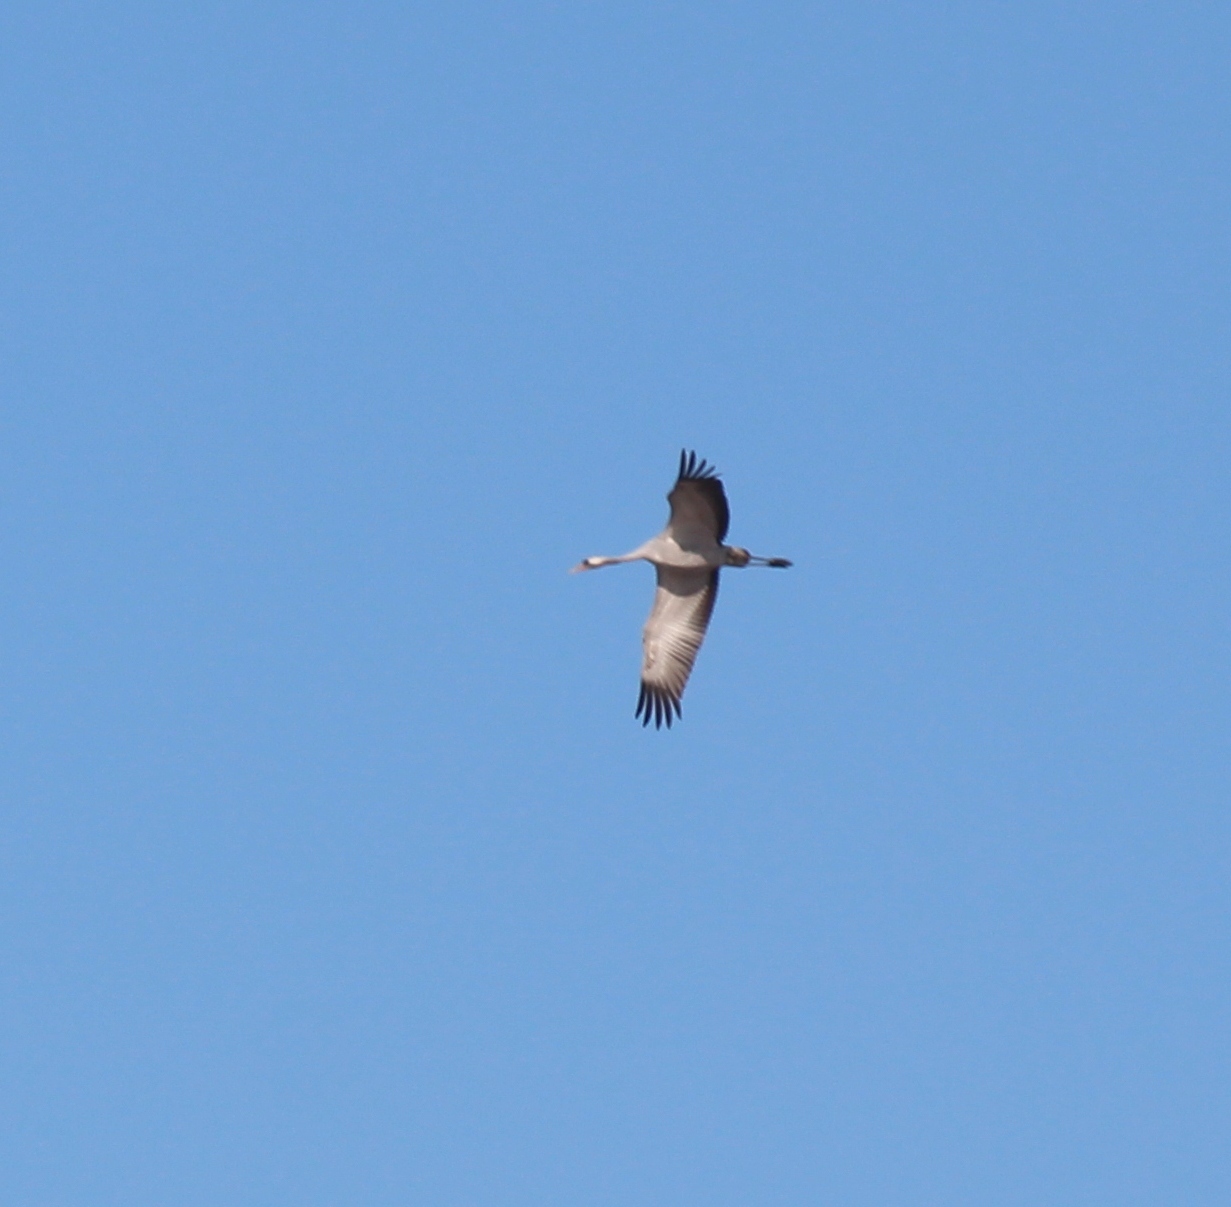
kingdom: Animalia
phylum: Chordata
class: Aves
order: Gruiformes
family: Gruidae
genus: Grus
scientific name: Grus grus
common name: Common crane
